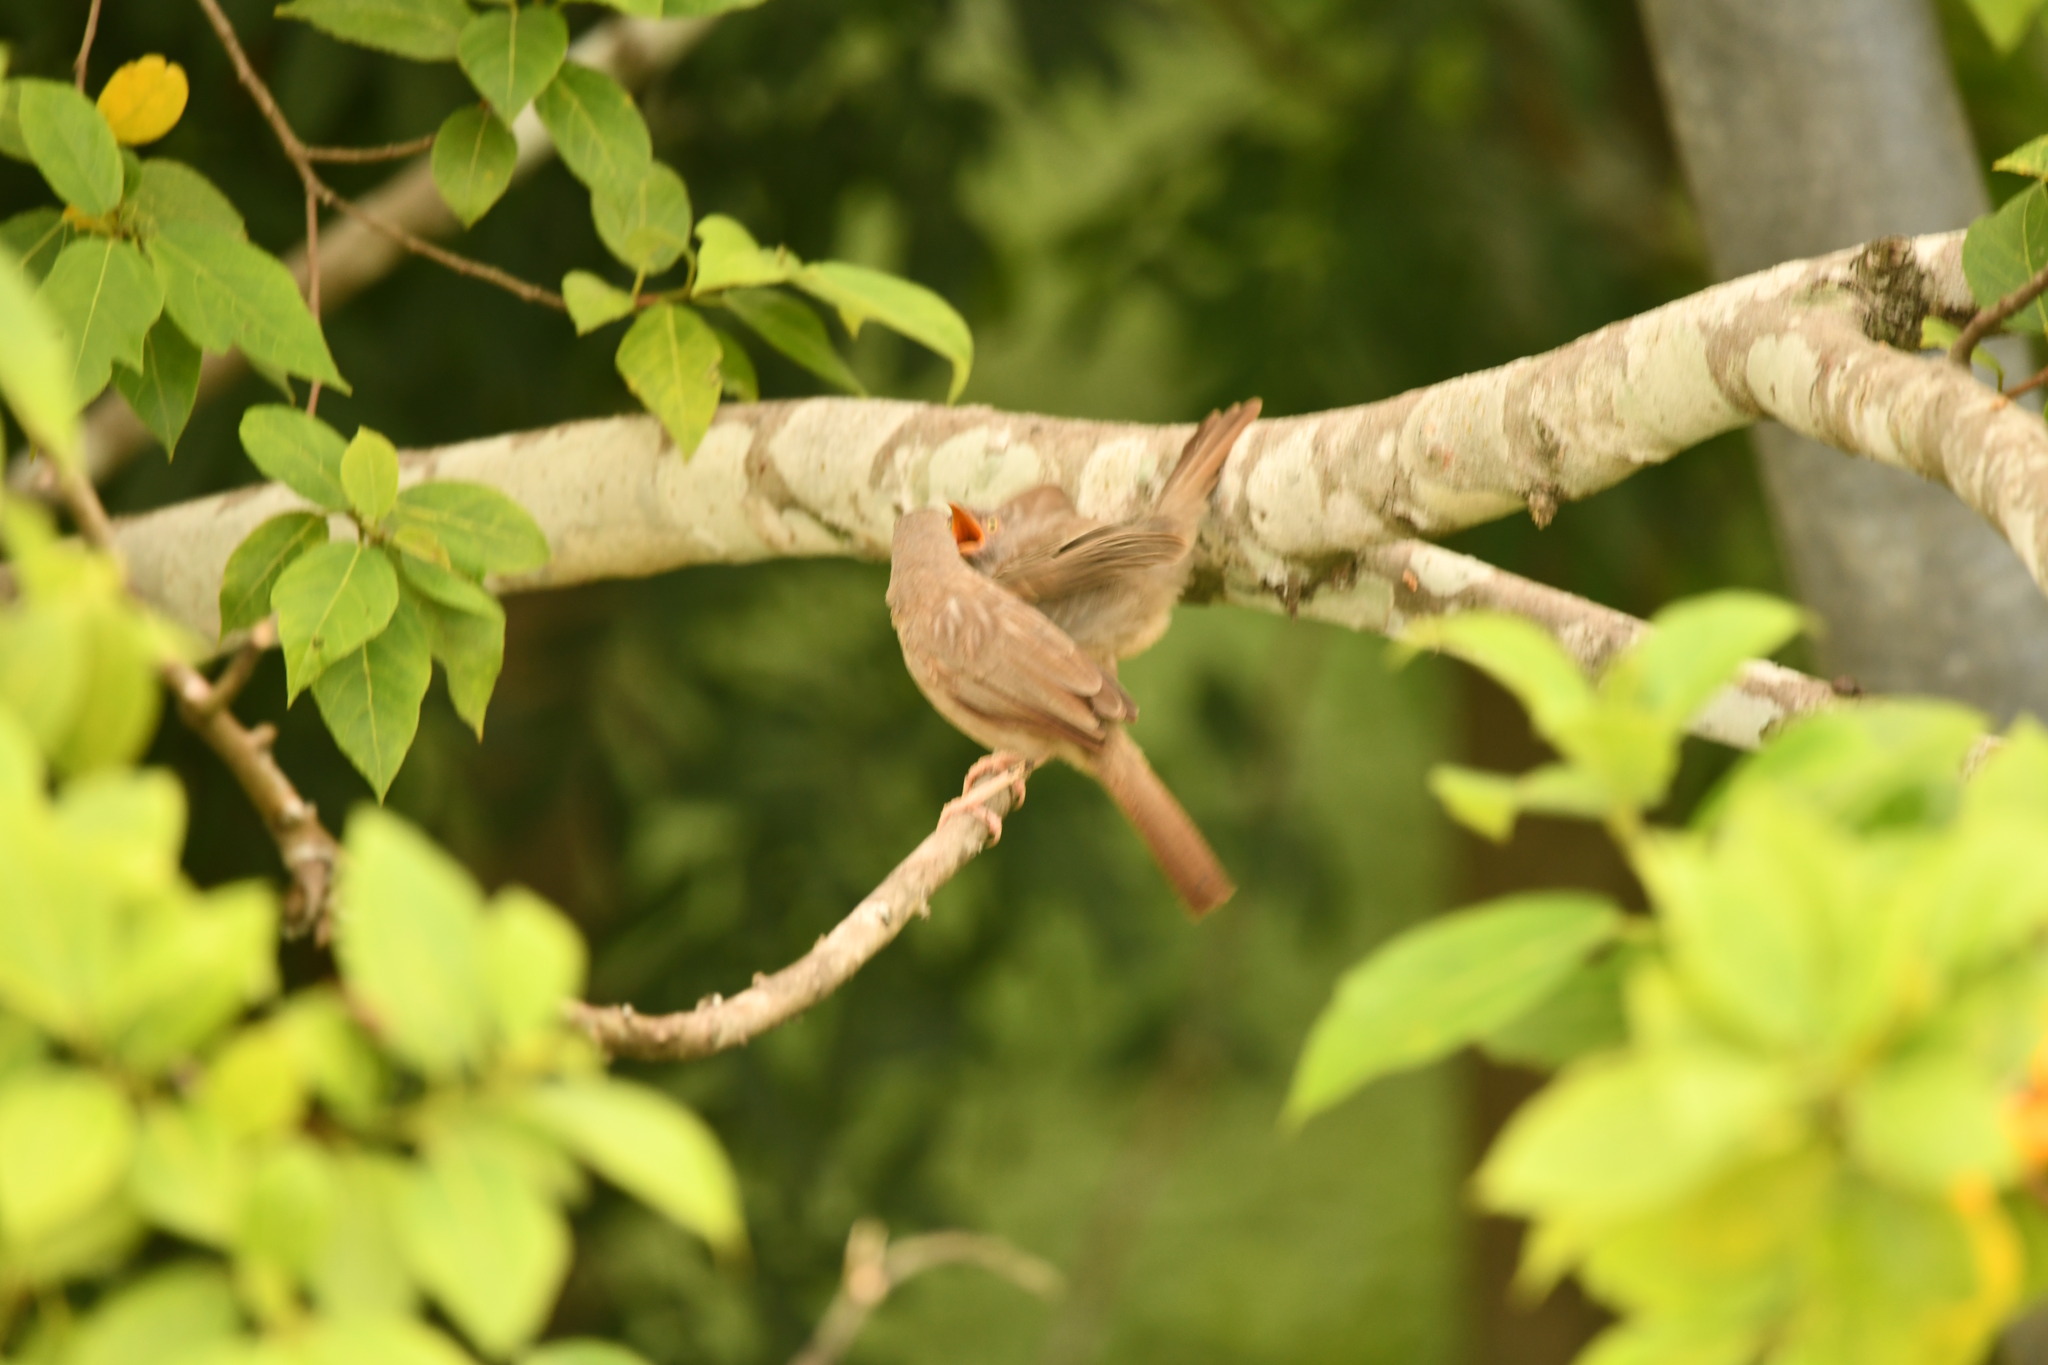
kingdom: Animalia
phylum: Chordata
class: Aves
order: Passeriformes
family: Leiothrichidae
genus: Turdoides
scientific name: Turdoides striata
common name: Jungle babbler
